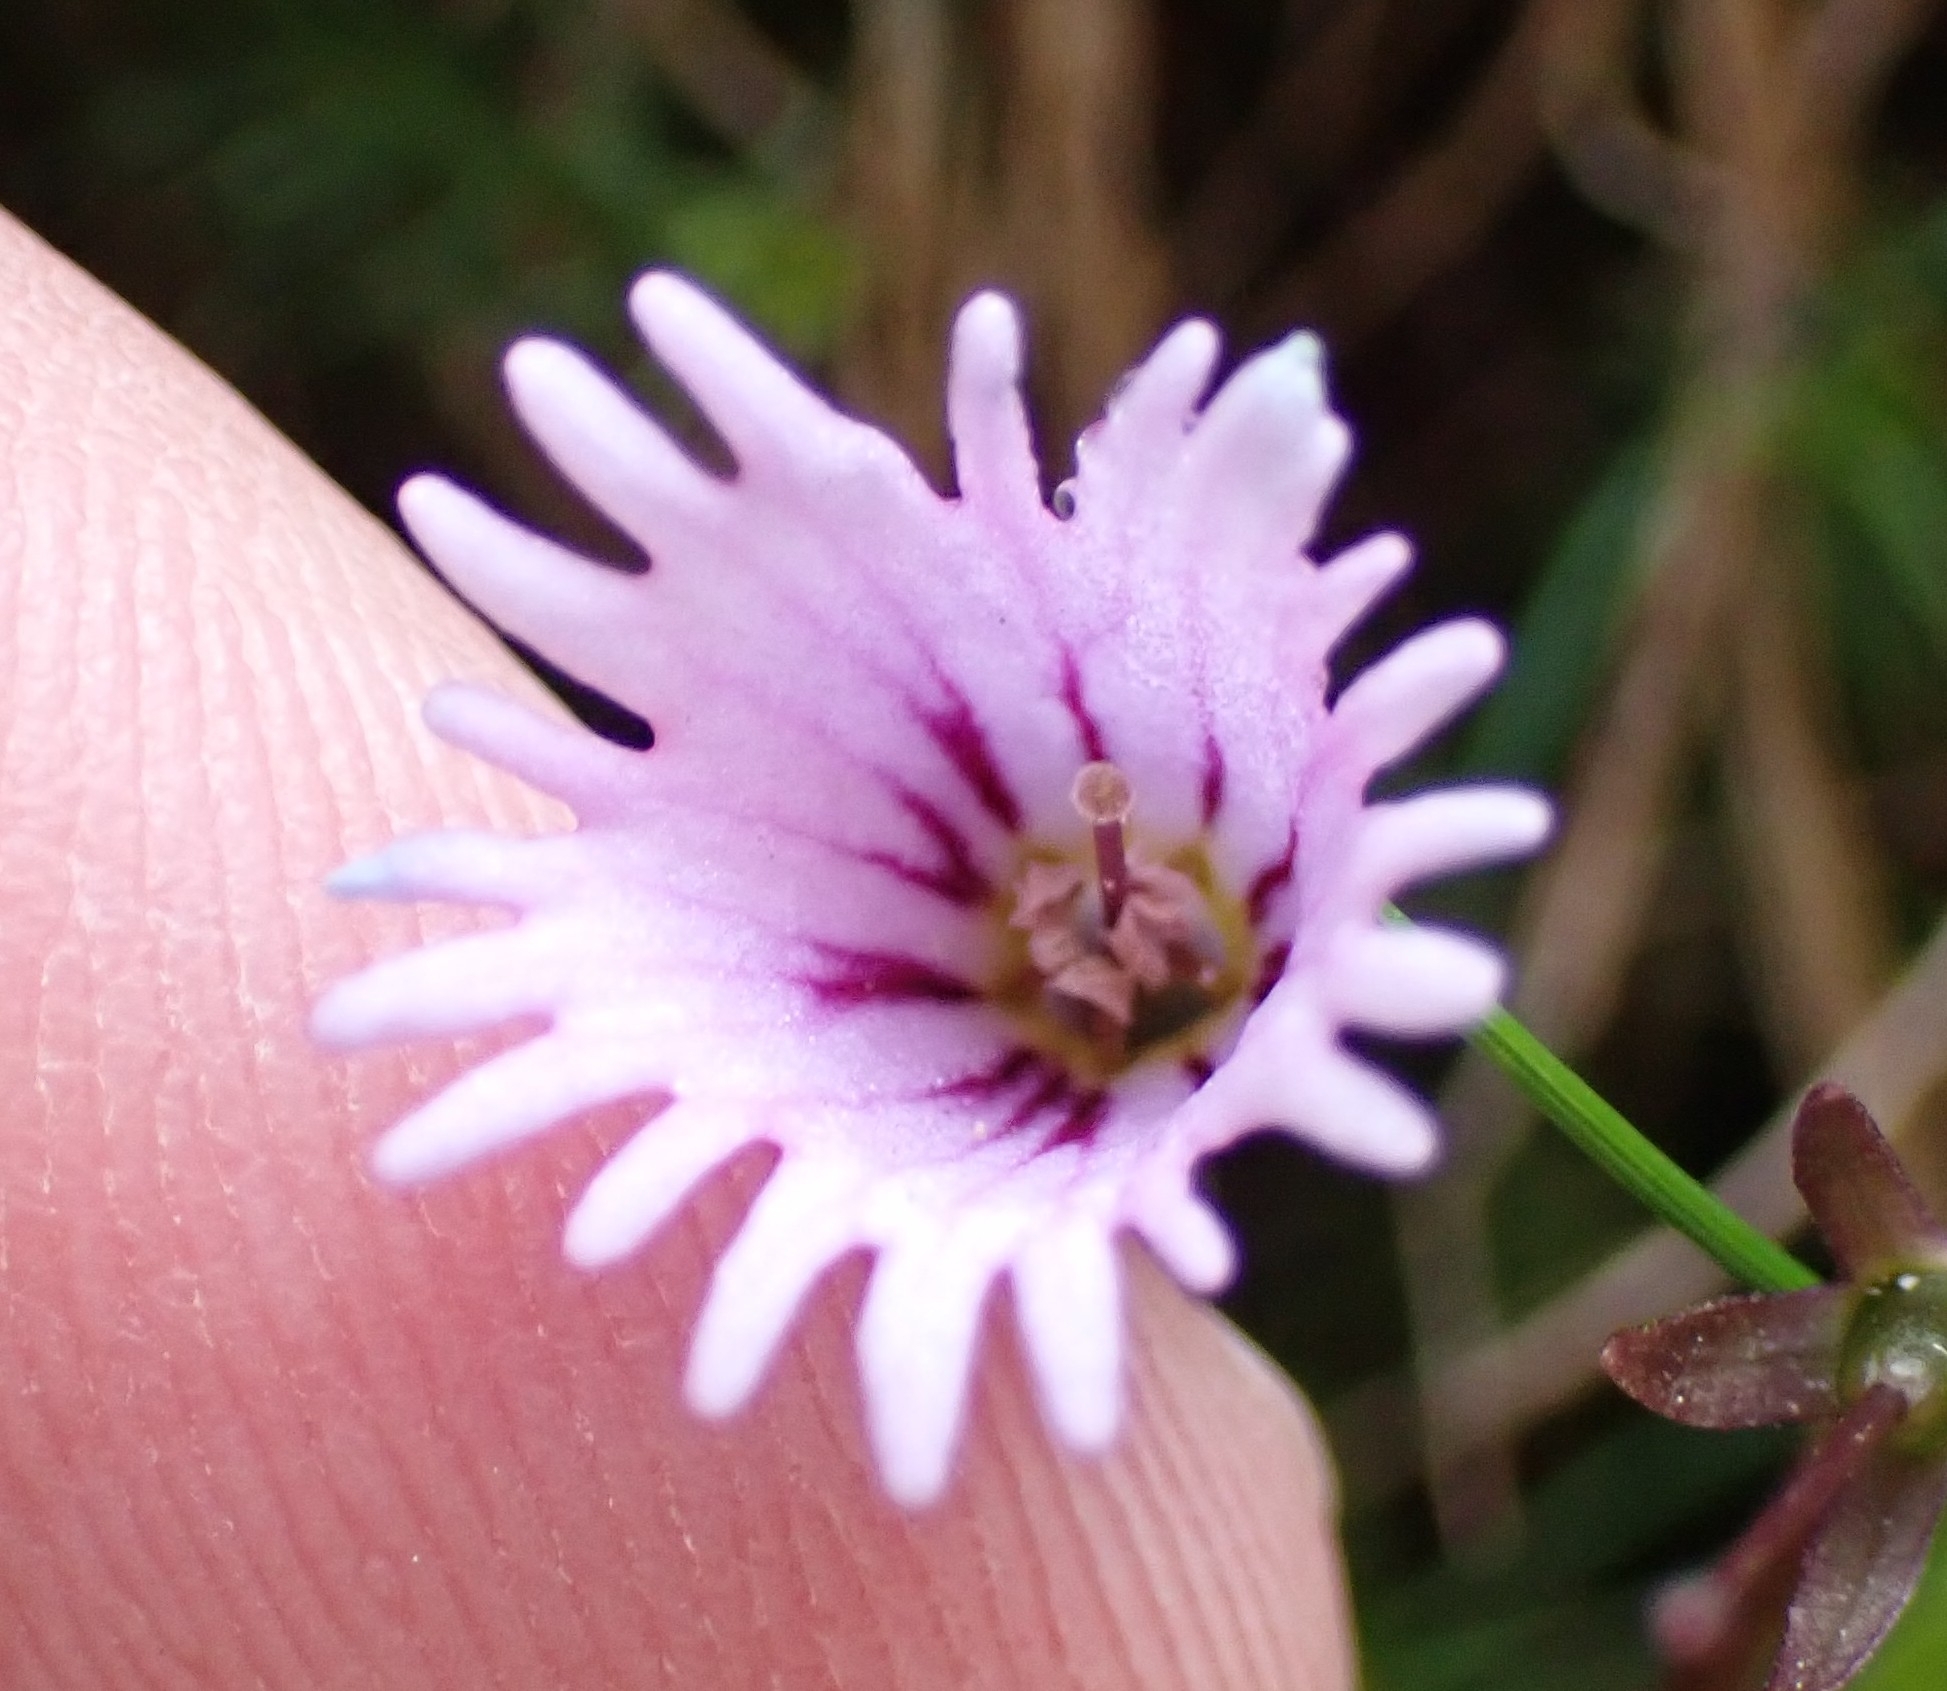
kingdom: Plantae
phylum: Tracheophyta
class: Magnoliopsida
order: Ericales
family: Primulaceae
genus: Soldanella
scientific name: Soldanella alpicola
